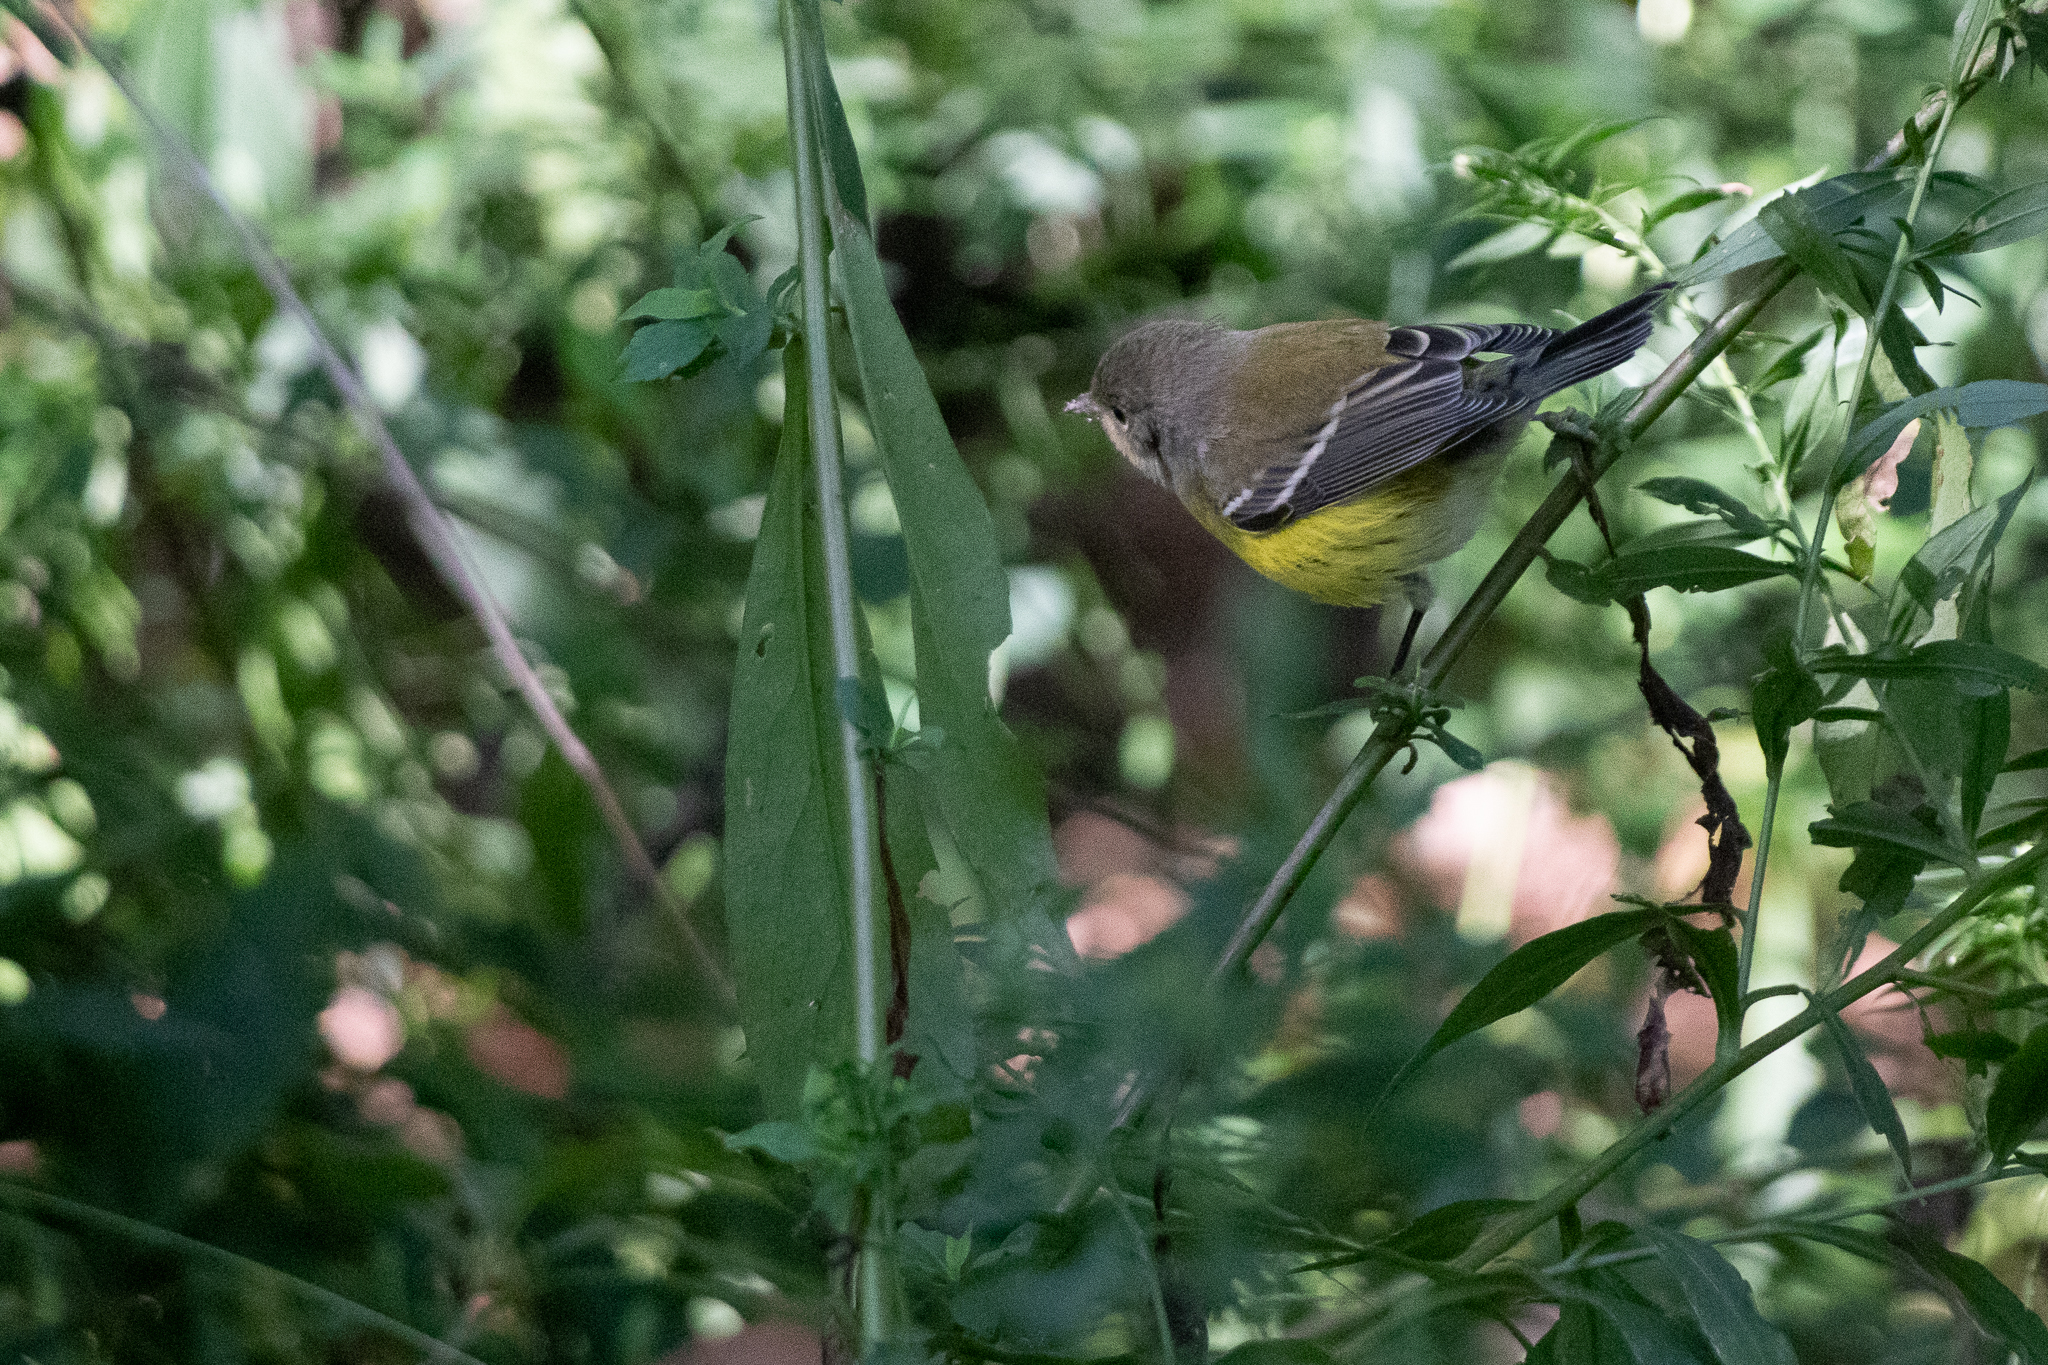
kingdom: Animalia
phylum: Chordata
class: Aves
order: Passeriformes
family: Parulidae
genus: Setophaga
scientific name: Setophaga magnolia
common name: Magnolia warbler
